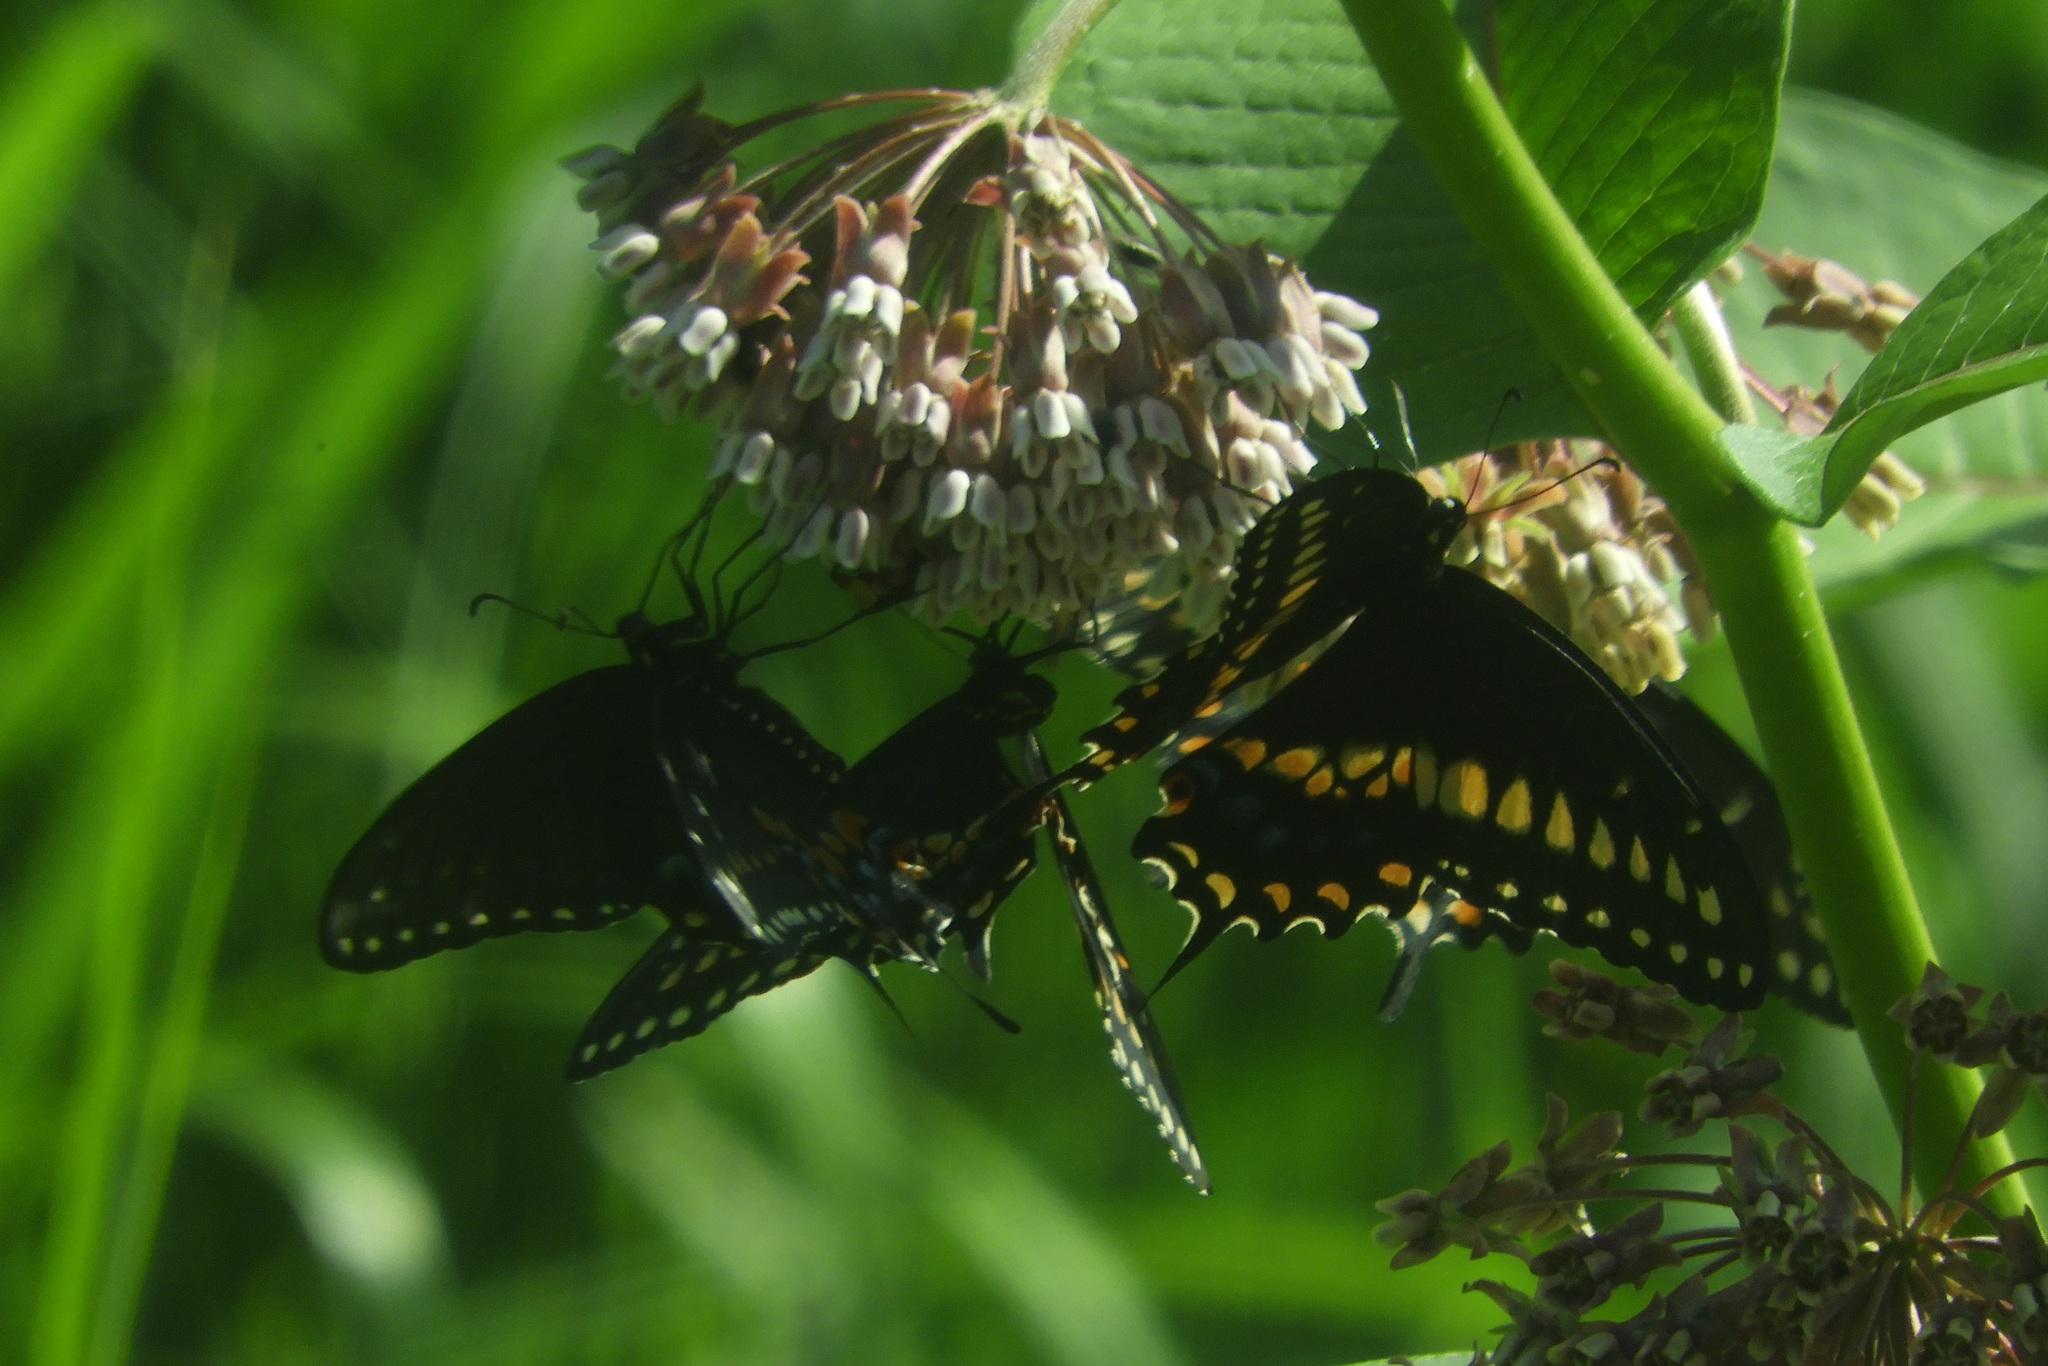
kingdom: Animalia
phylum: Arthropoda
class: Insecta
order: Lepidoptera
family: Papilionidae
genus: Papilio
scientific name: Papilio polyxenes
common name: Black swallowtail
